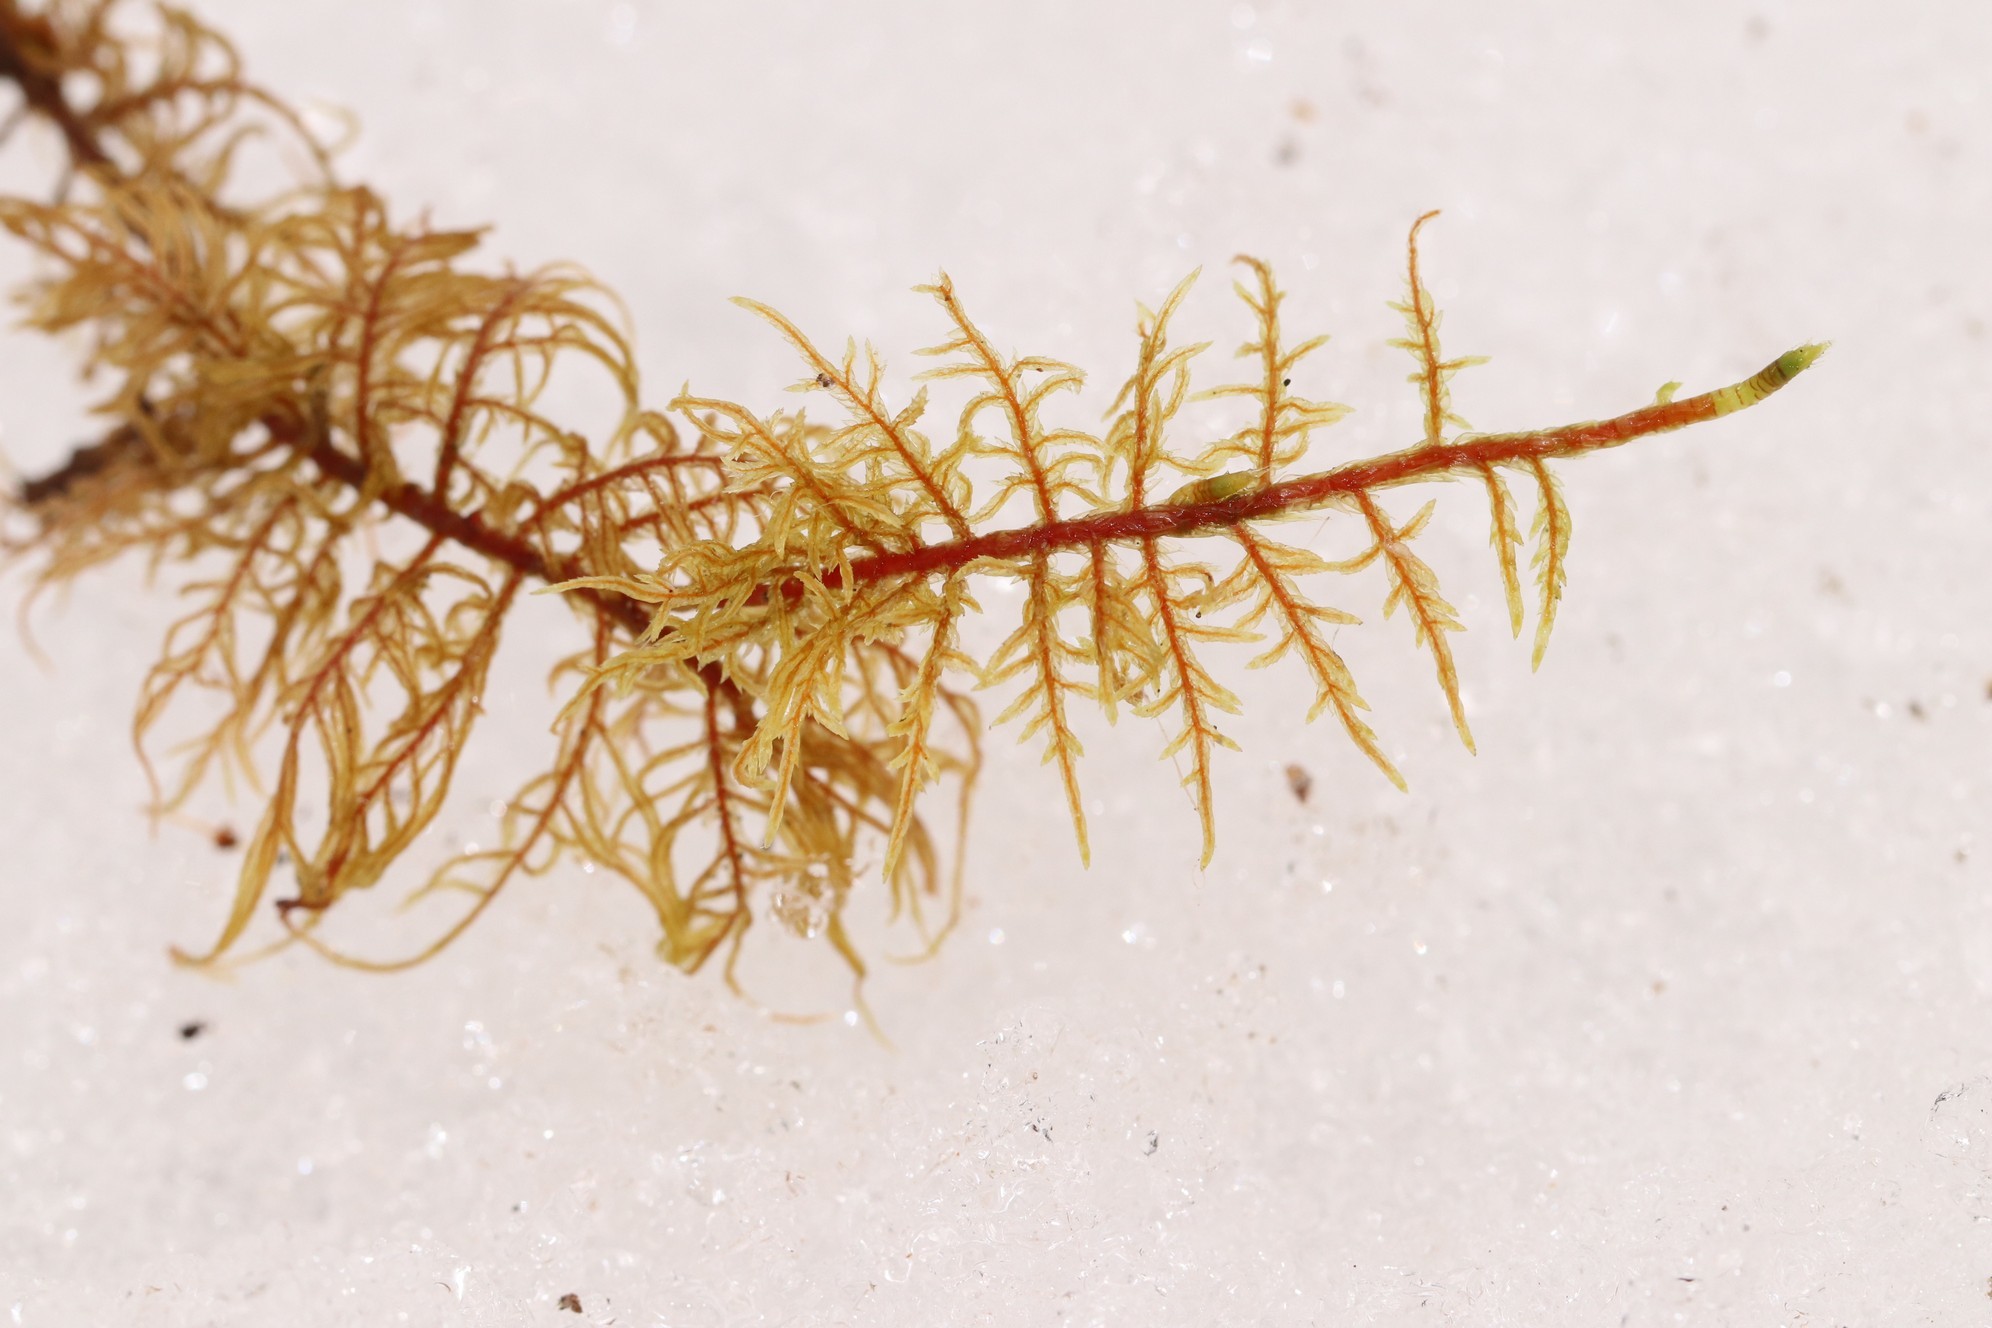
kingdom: Plantae
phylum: Bryophyta
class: Bryopsida
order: Hypnales
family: Hylocomiaceae
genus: Hylocomium
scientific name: Hylocomium splendens
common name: Stairstep moss
